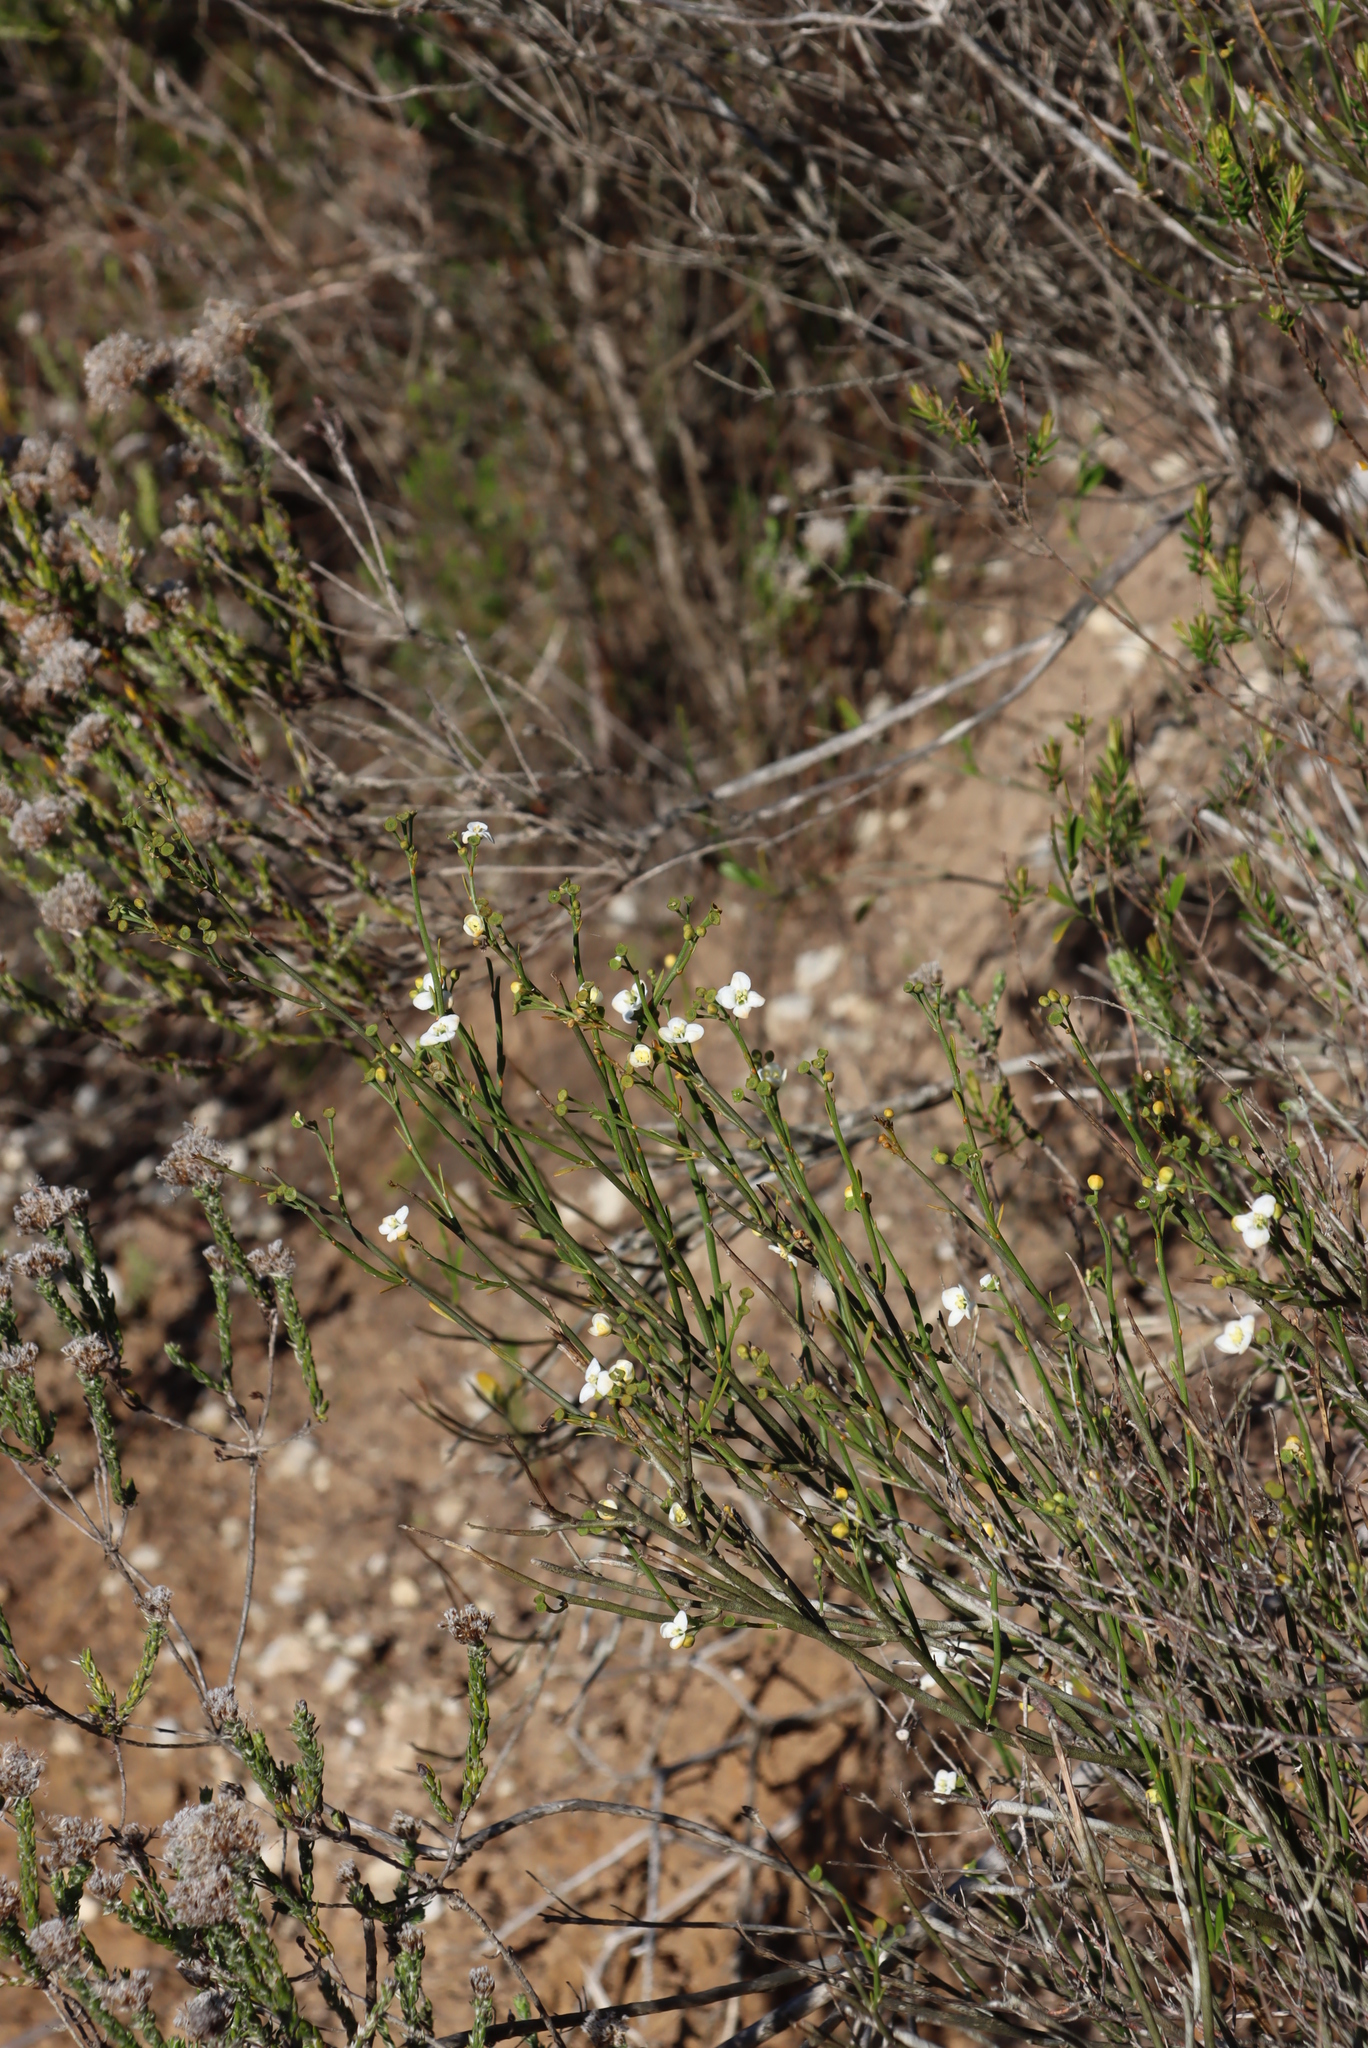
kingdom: Plantae
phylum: Tracheophyta
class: Magnoliopsida
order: Solanales
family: Montiniaceae
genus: Montinia
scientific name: Montinia caryophyllacea
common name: Wild clove-bush
